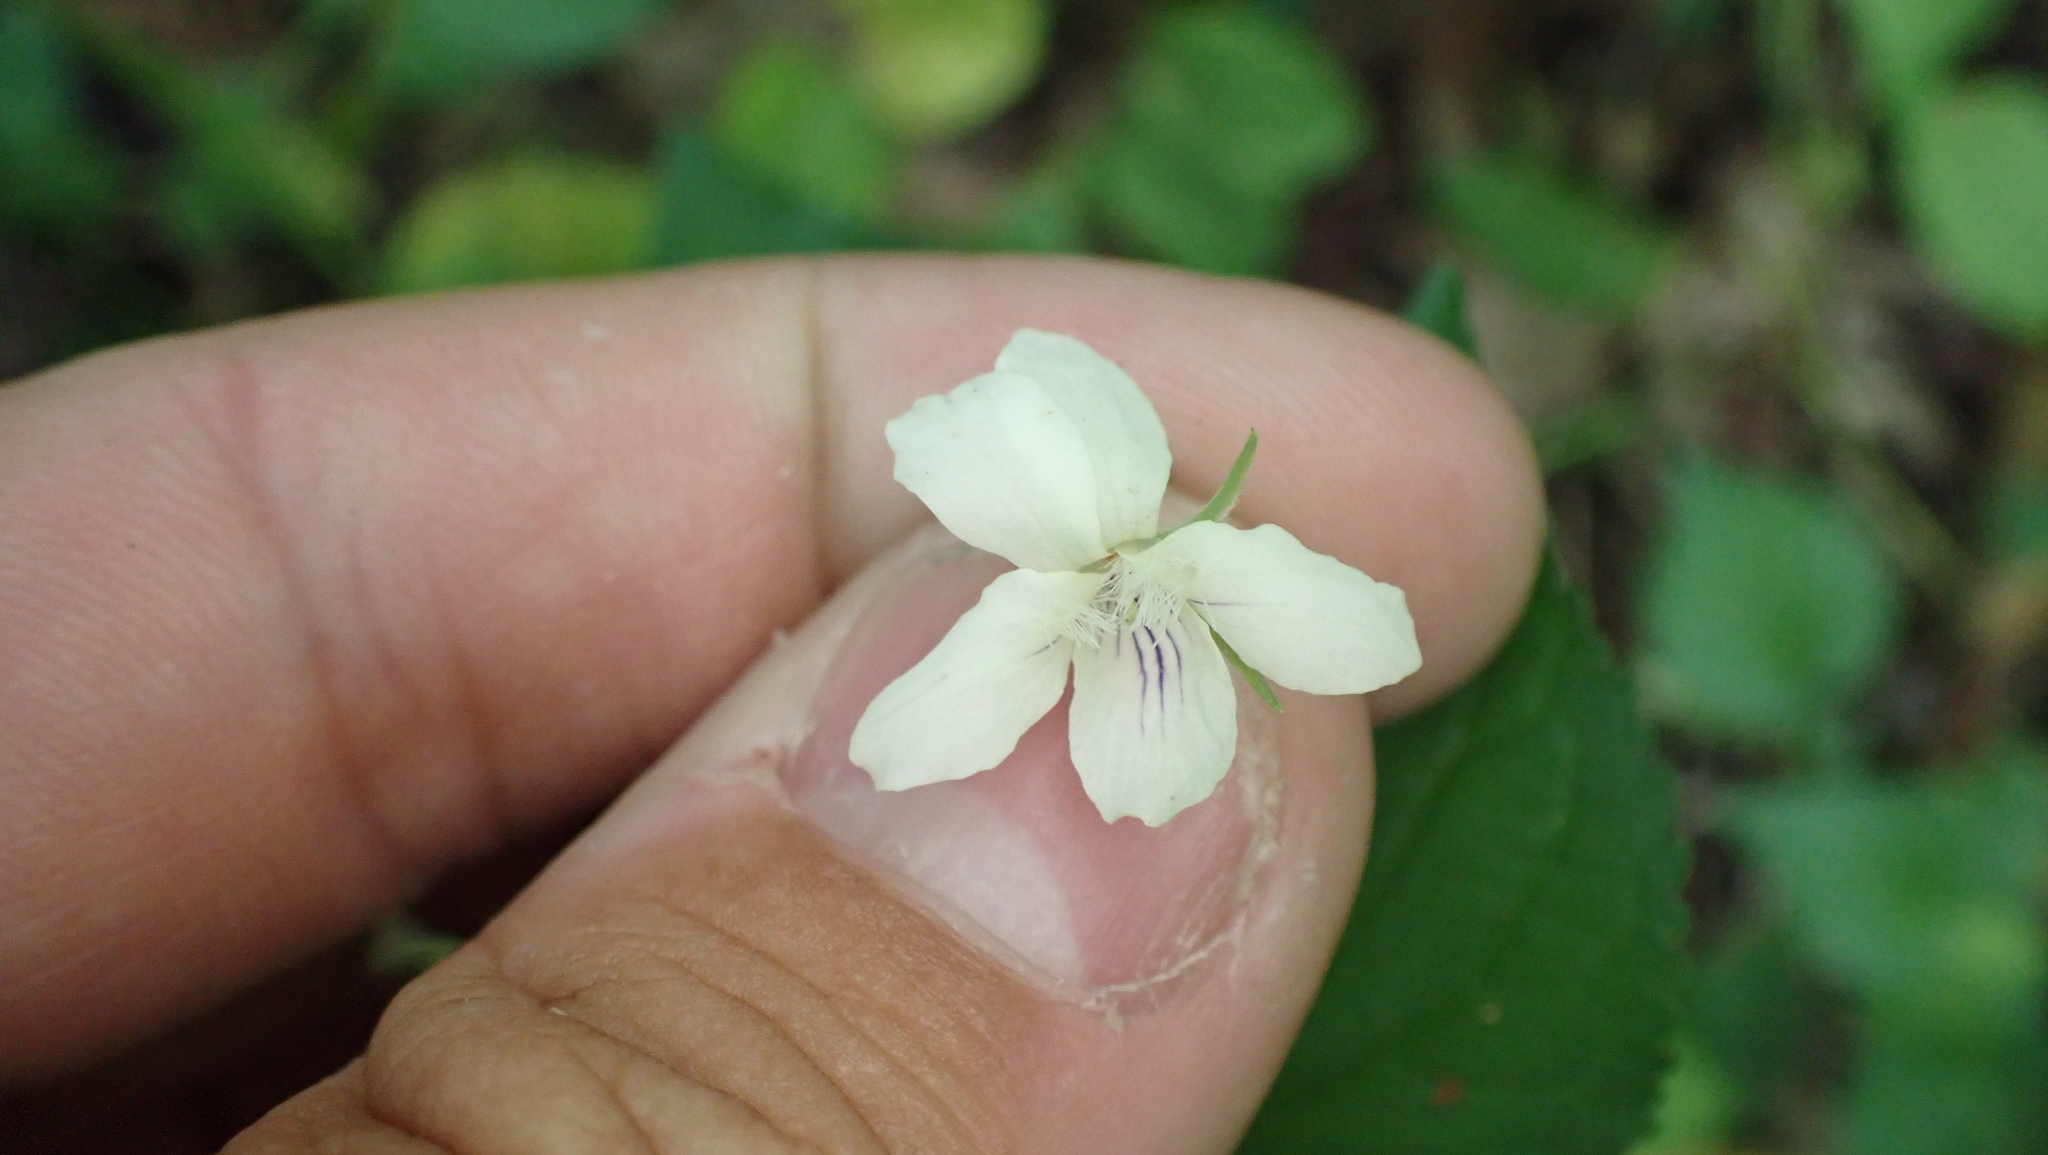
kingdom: Plantae
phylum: Tracheophyta
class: Magnoliopsida
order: Malpighiales
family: Violaceae
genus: Viola
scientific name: Viola striata
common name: Cream violet
